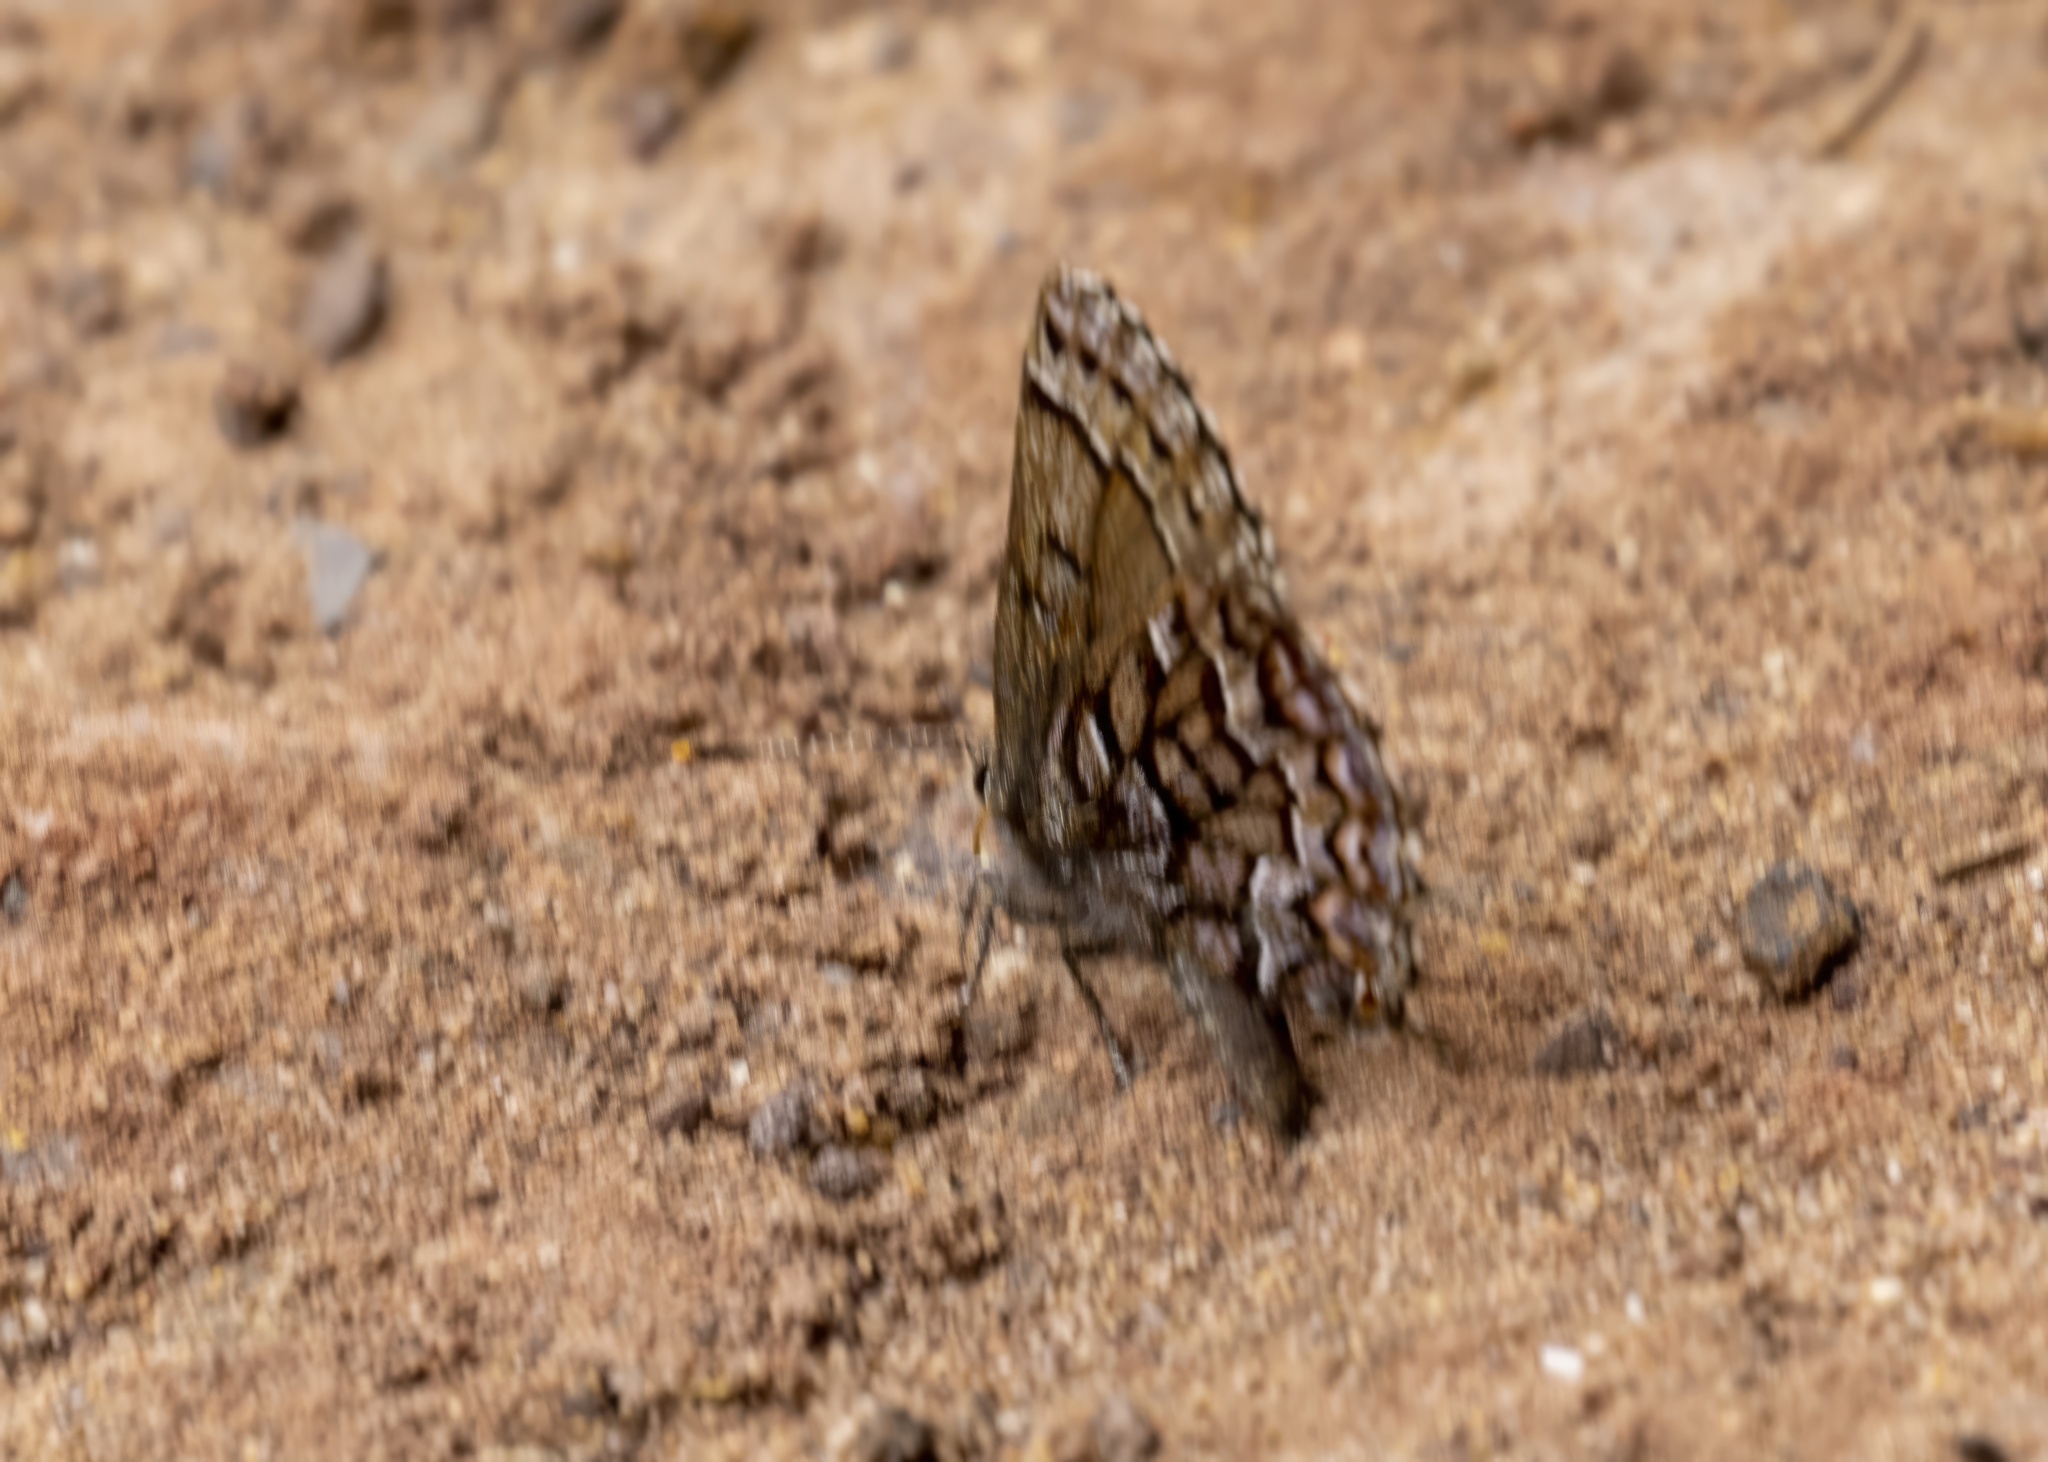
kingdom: Animalia
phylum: Arthropoda
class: Insecta
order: Lepidoptera
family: Lycaenidae
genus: Incisalia
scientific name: Incisalia niphon
